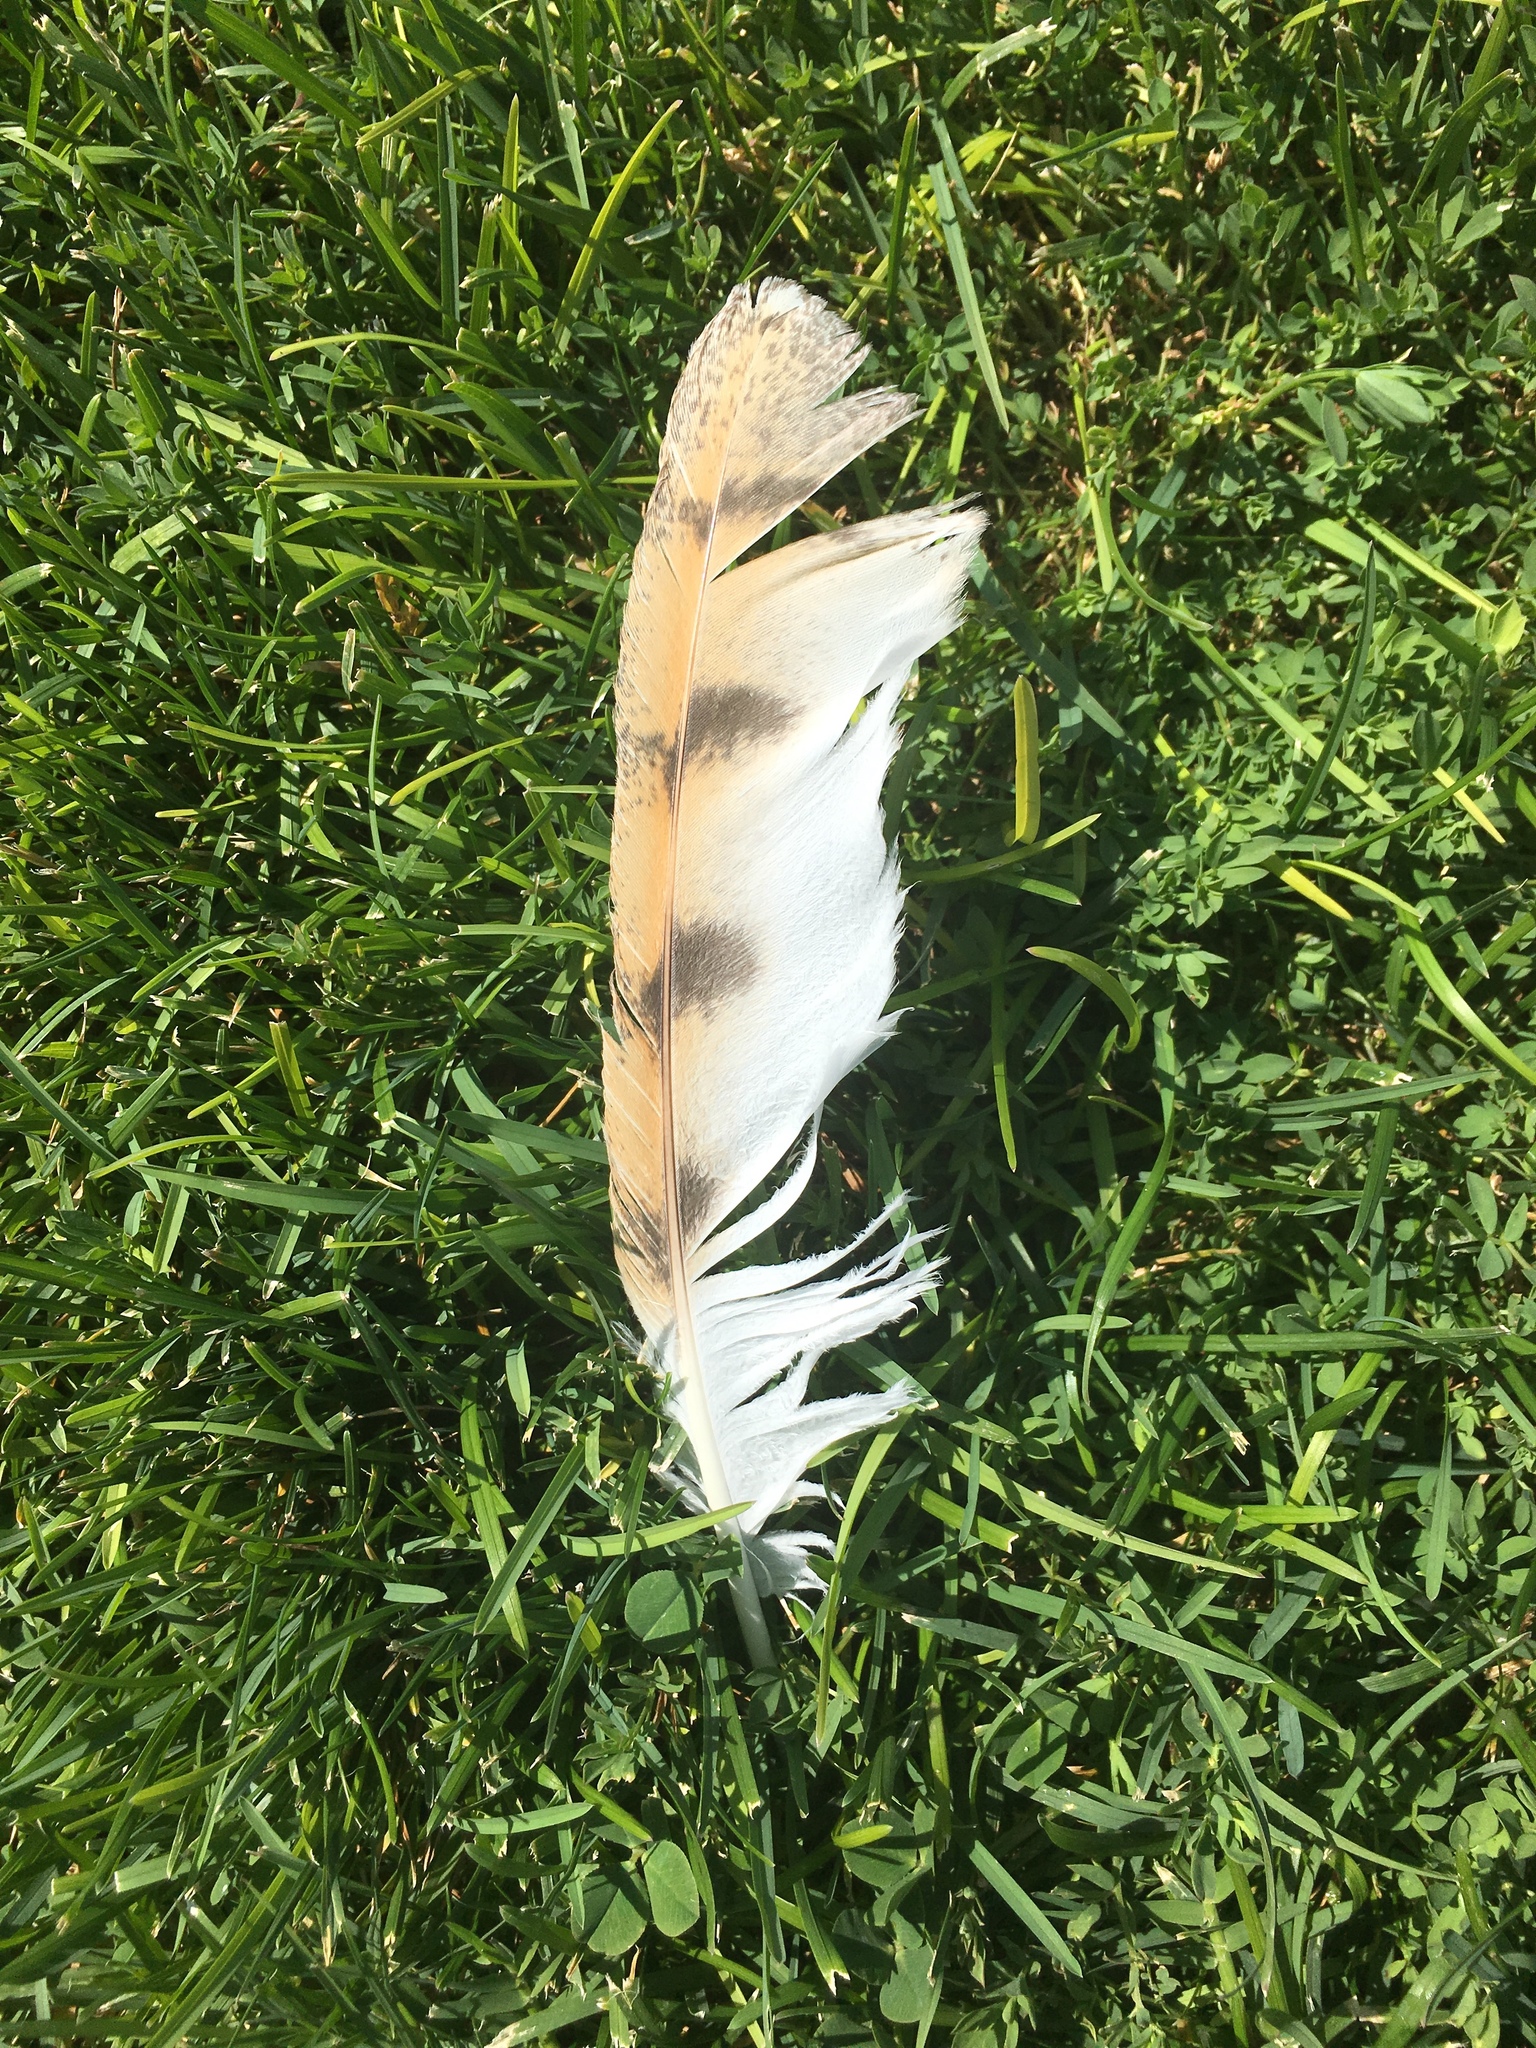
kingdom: Animalia
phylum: Chordata
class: Aves
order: Strigiformes
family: Tytonidae
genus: Tyto
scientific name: Tyto alba
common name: Barn owl
